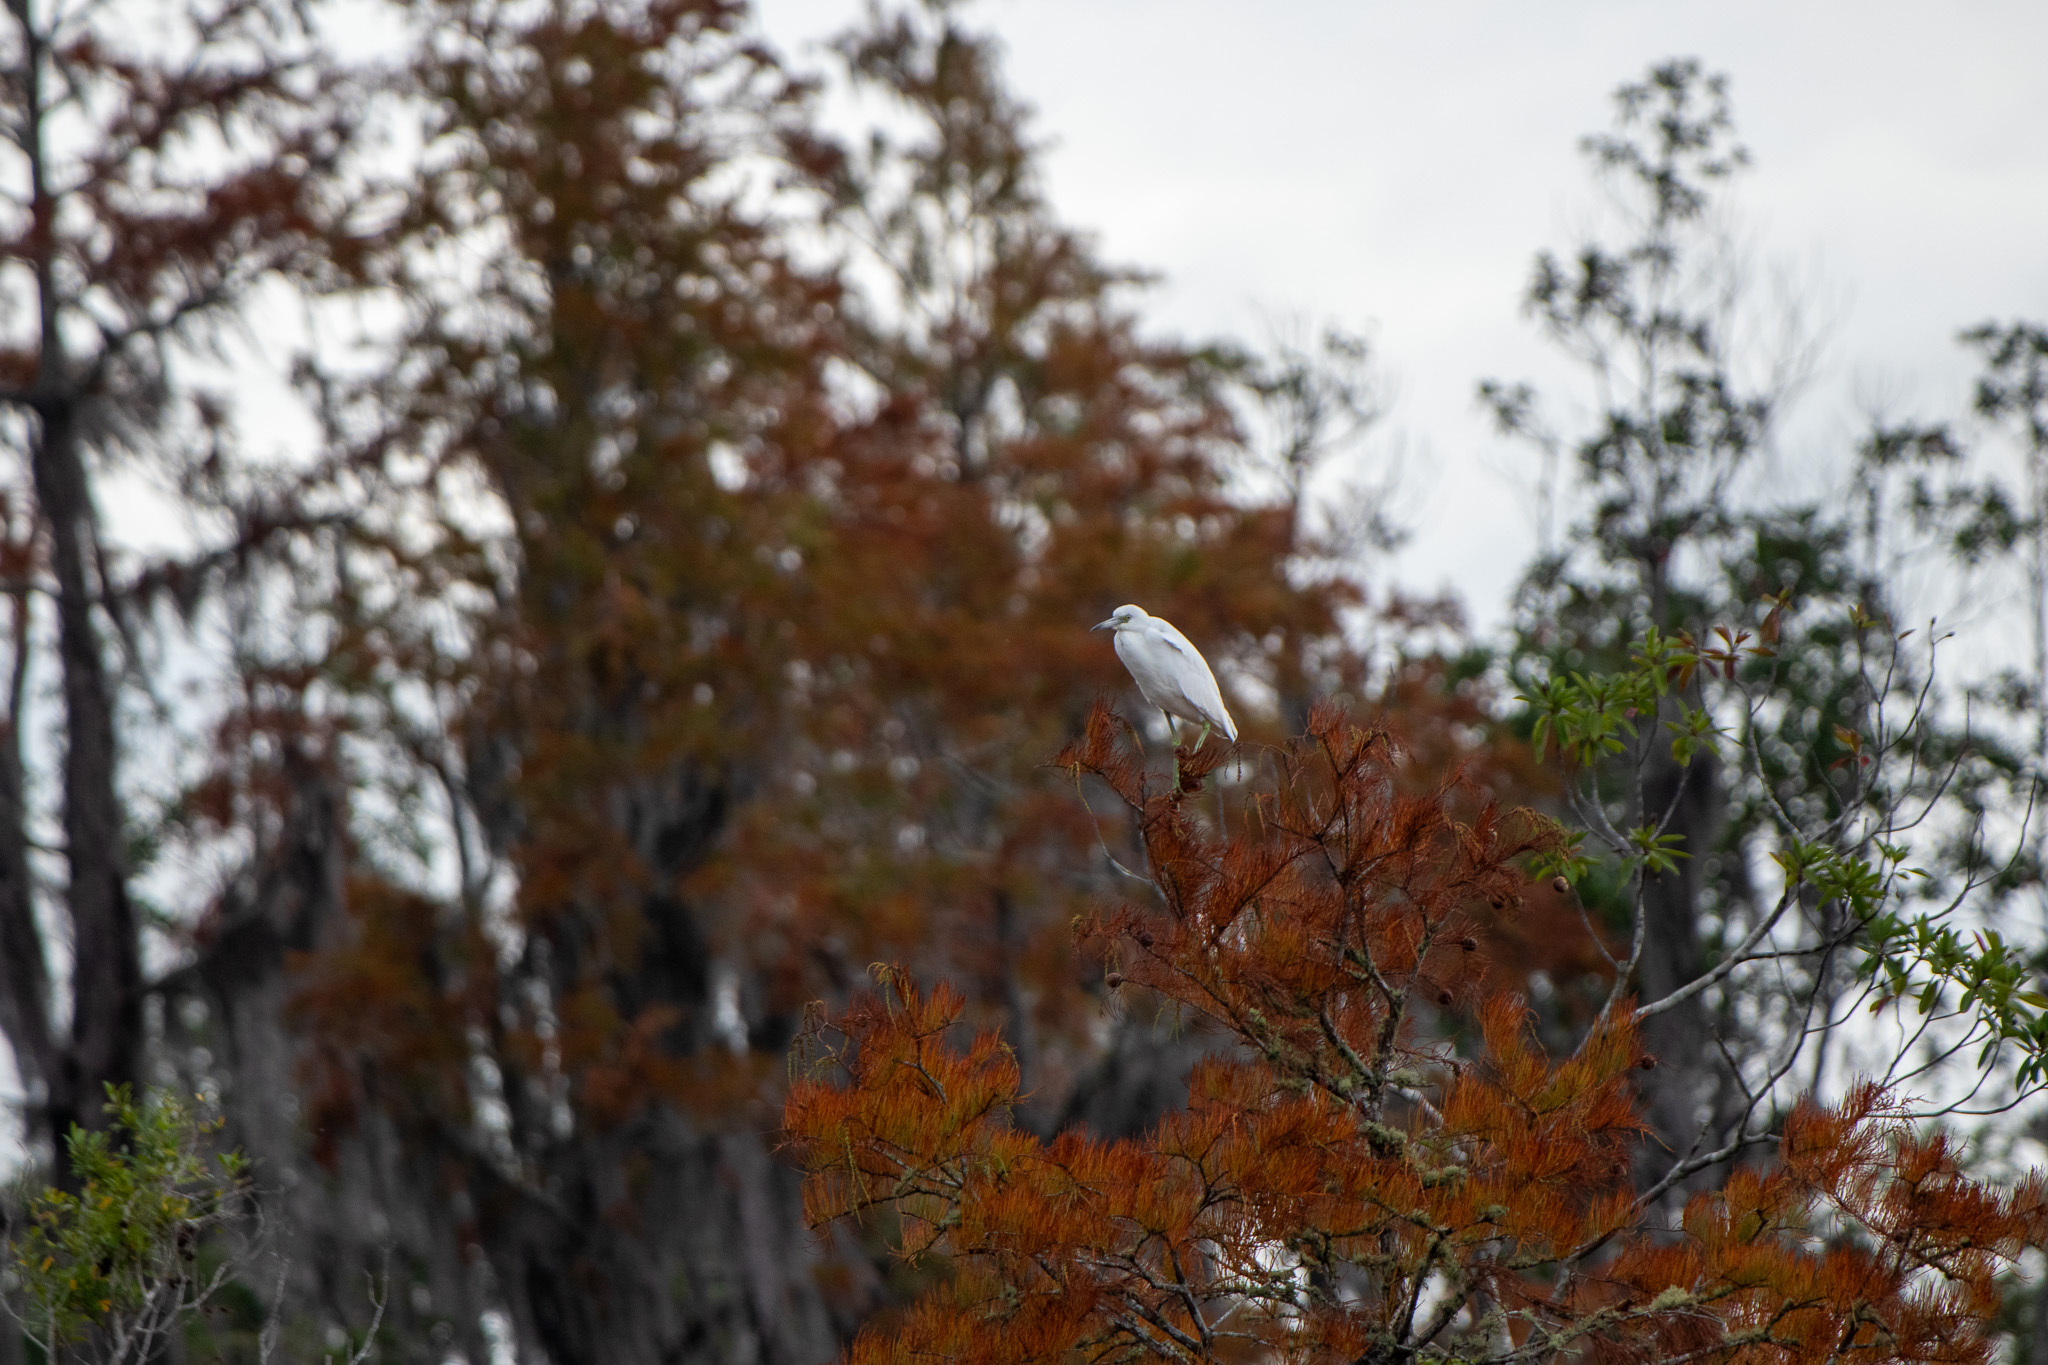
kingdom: Animalia
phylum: Chordata
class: Aves
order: Pelecaniformes
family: Ardeidae
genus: Egretta
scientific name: Egretta caerulea
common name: Little blue heron
